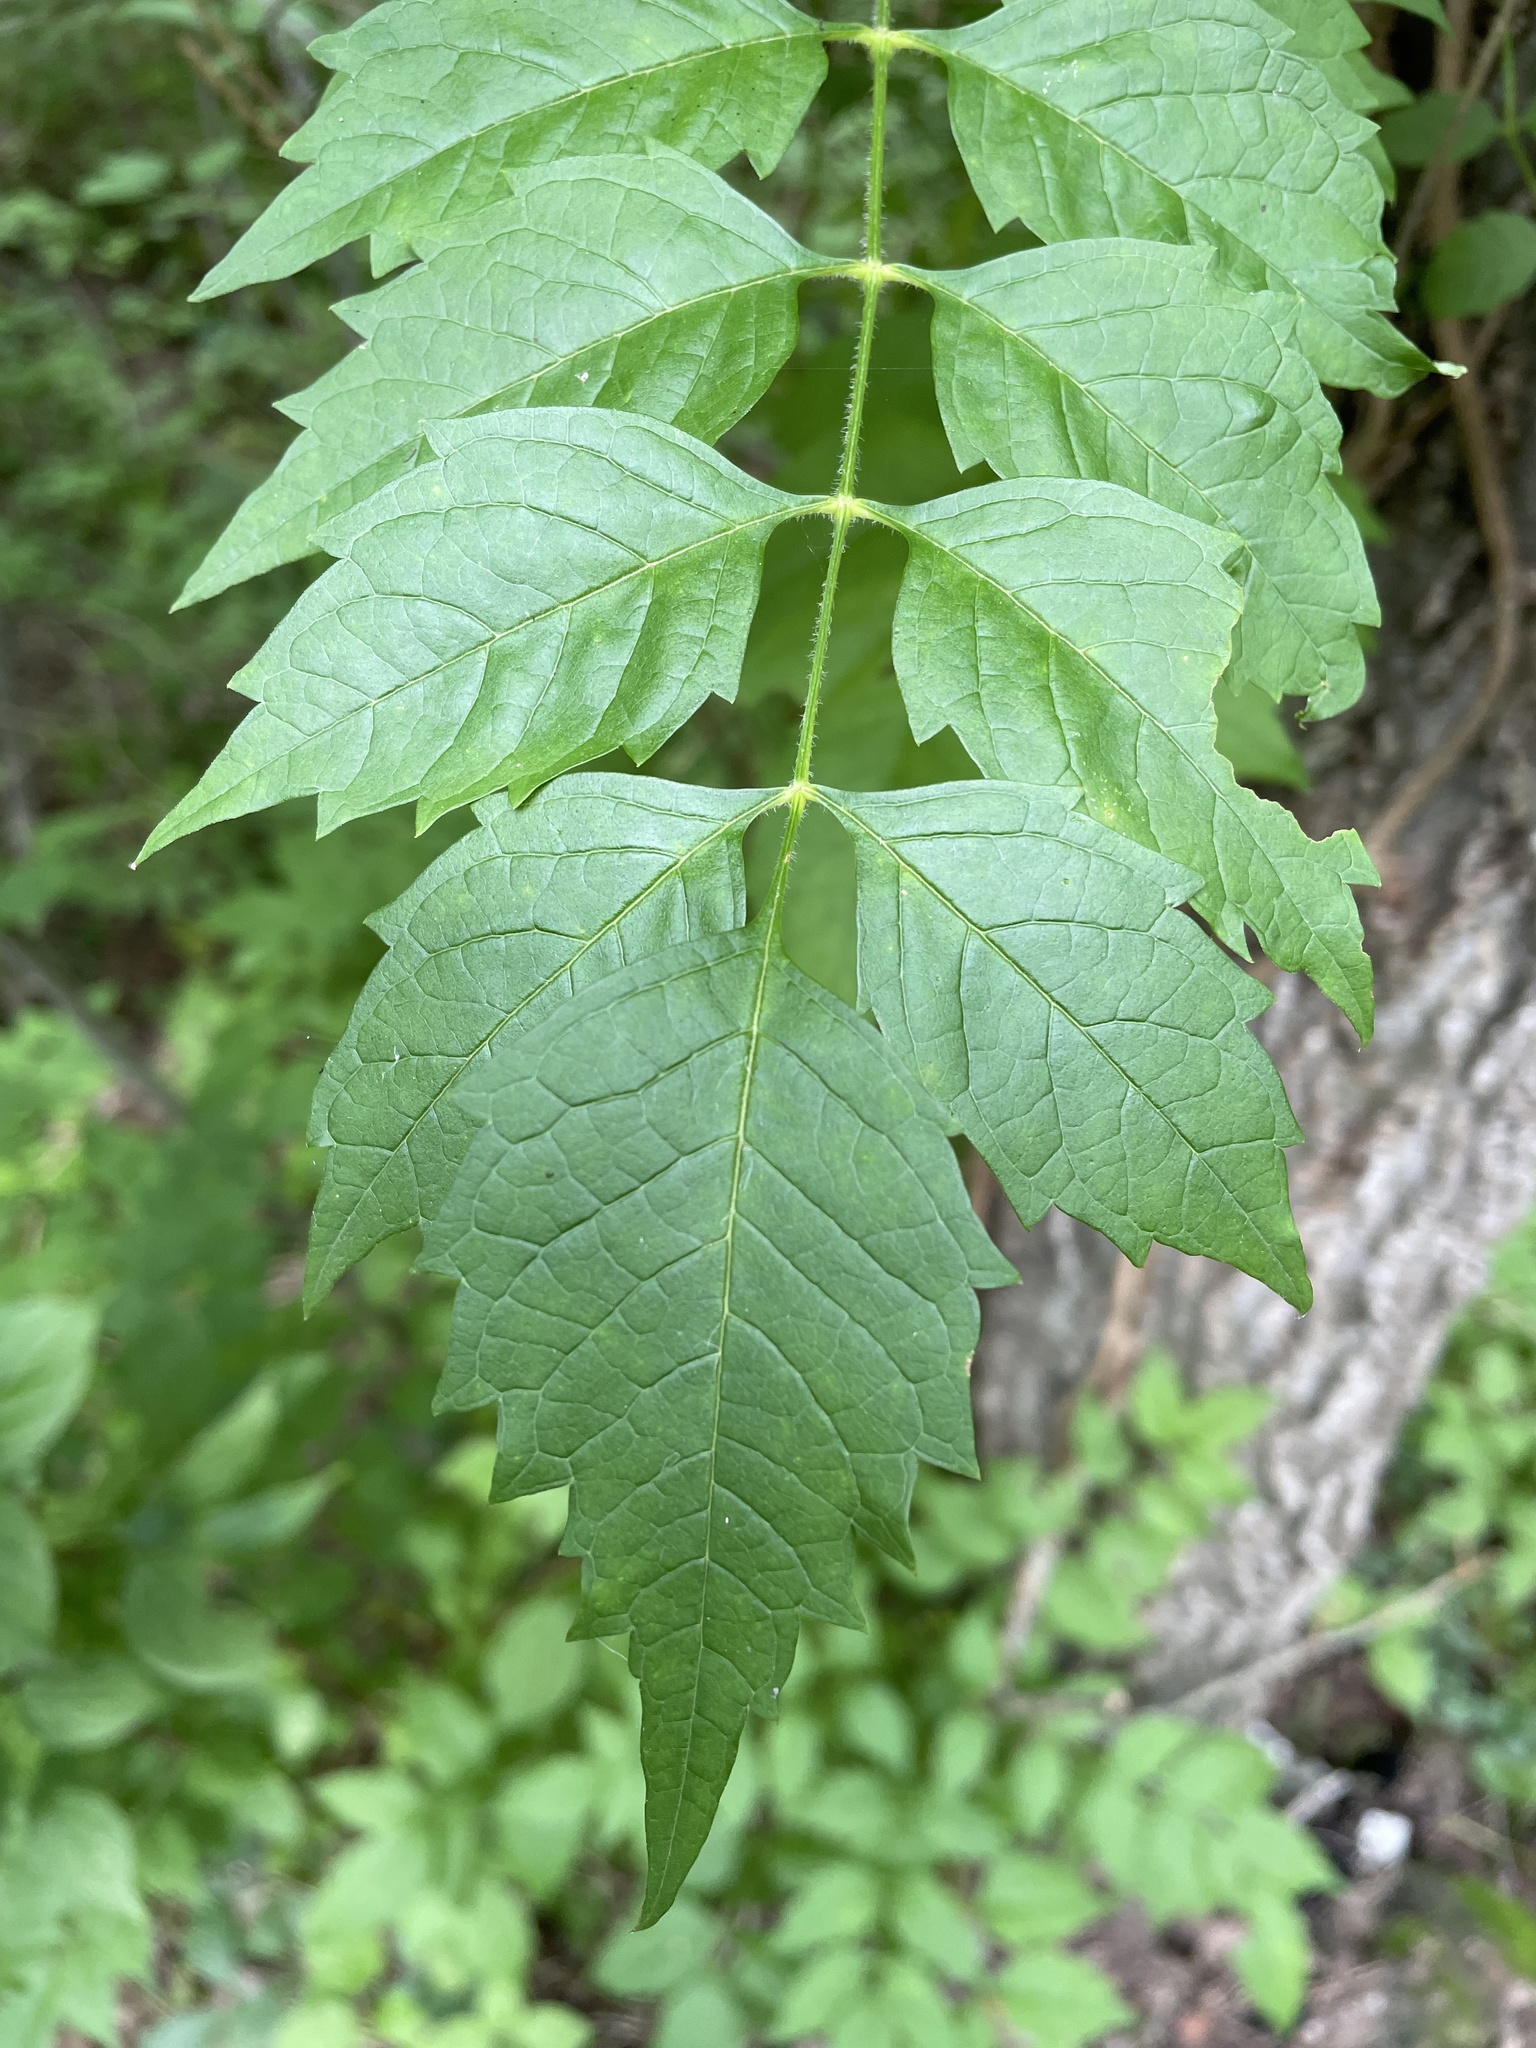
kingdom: Plantae
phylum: Tracheophyta
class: Magnoliopsida
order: Lamiales
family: Bignoniaceae
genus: Campsis
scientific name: Campsis radicans
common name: Trumpet-creeper
